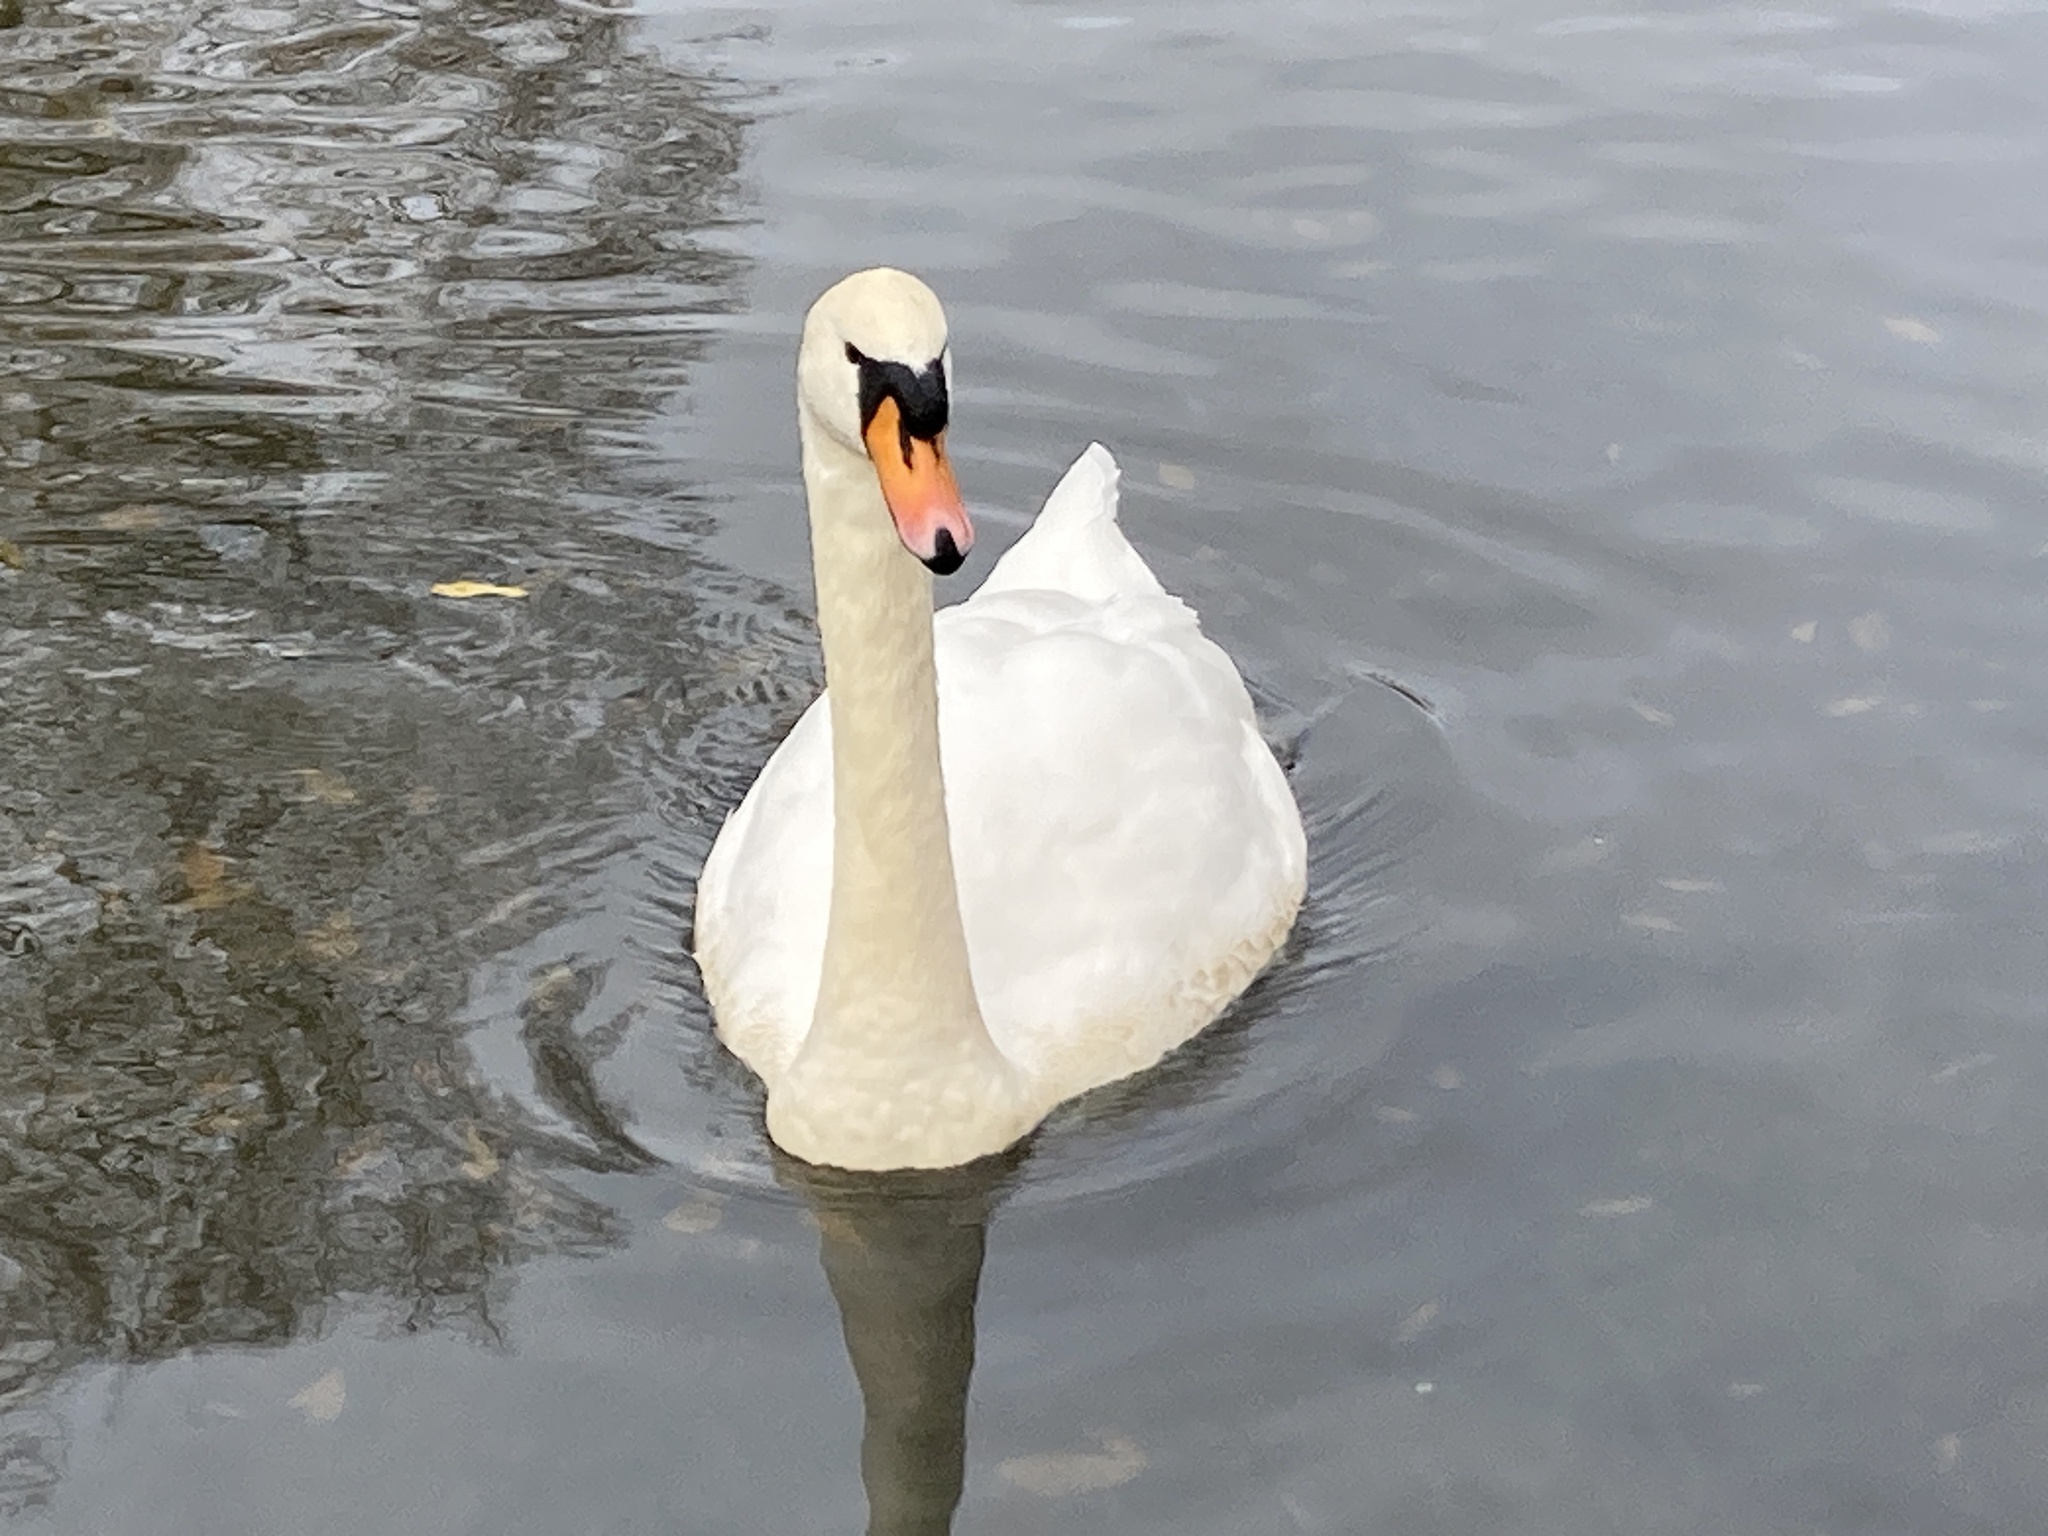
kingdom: Animalia
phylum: Chordata
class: Aves
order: Anseriformes
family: Anatidae
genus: Cygnus
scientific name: Cygnus olor
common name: Mute swan
